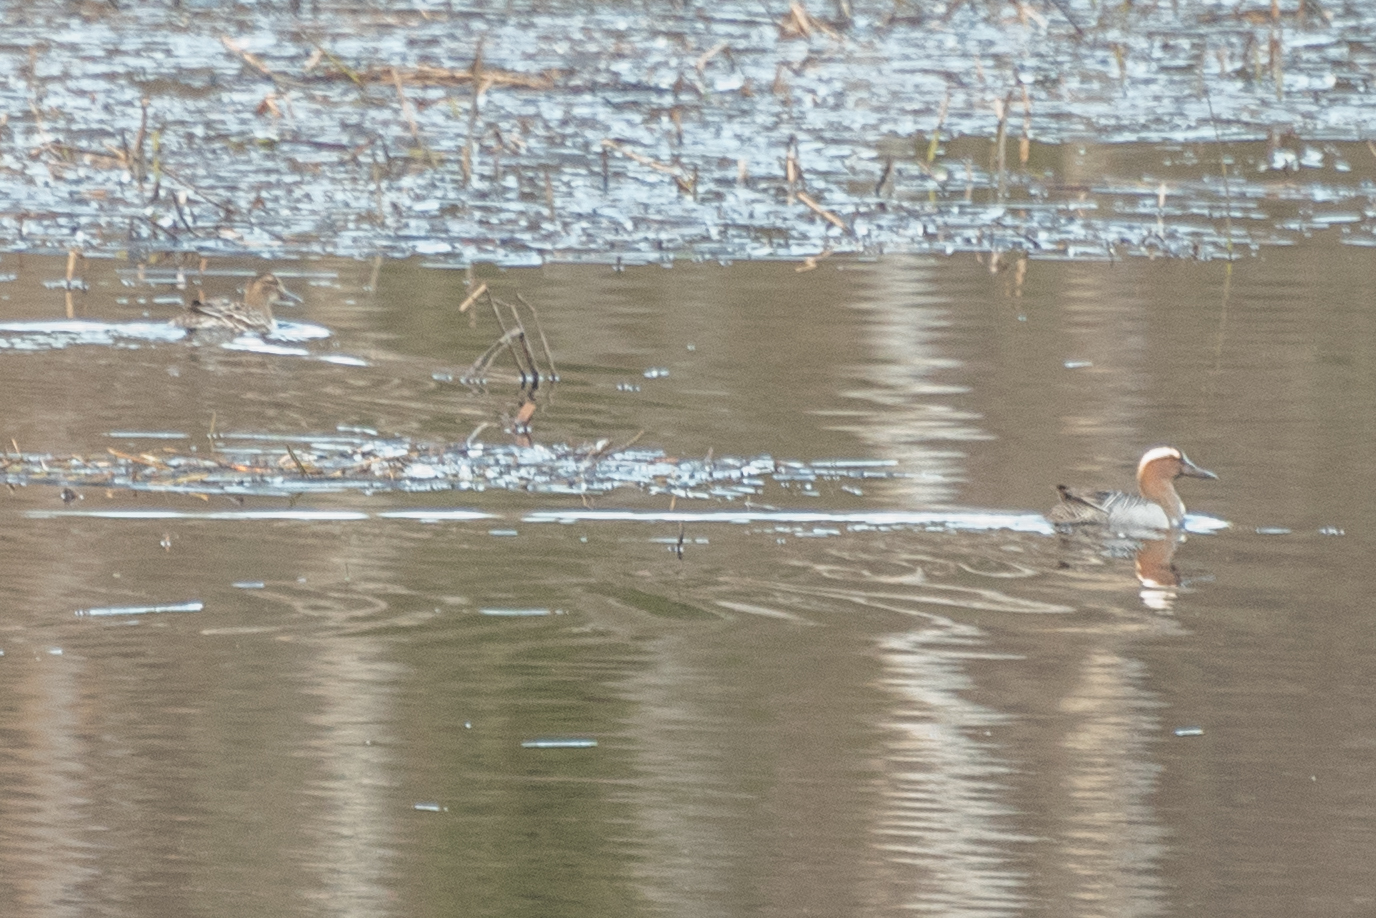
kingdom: Animalia
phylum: Chordata
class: Aves
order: Anseriformes
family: Anatidae
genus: Spatula
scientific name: Spatula querquedula
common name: Garganey
